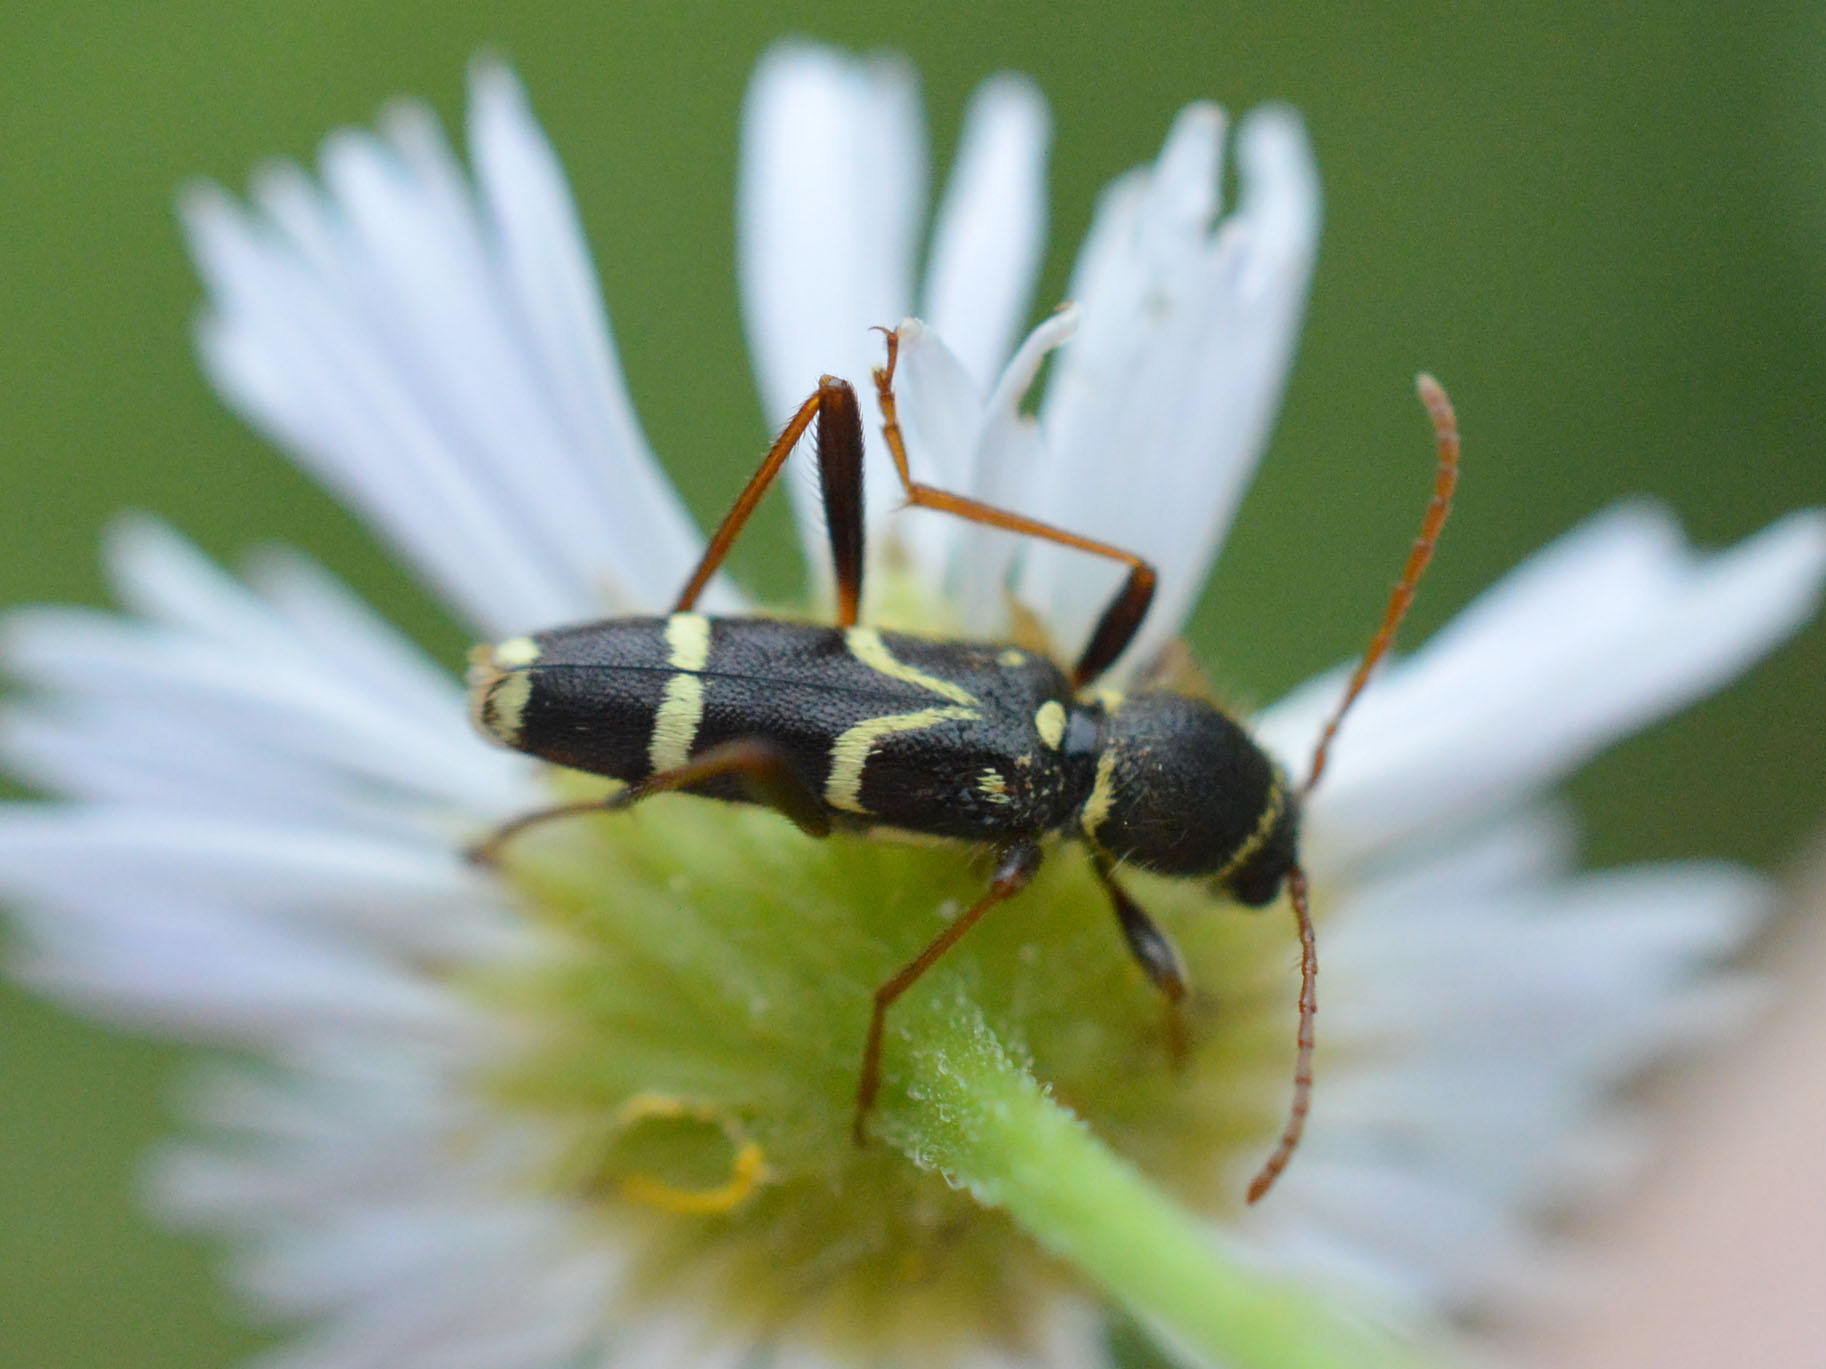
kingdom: Animalia
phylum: Arthropoda
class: Insecta
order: Coleoptera
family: Cerambycidae
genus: Clytus
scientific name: Clytus rhamni
